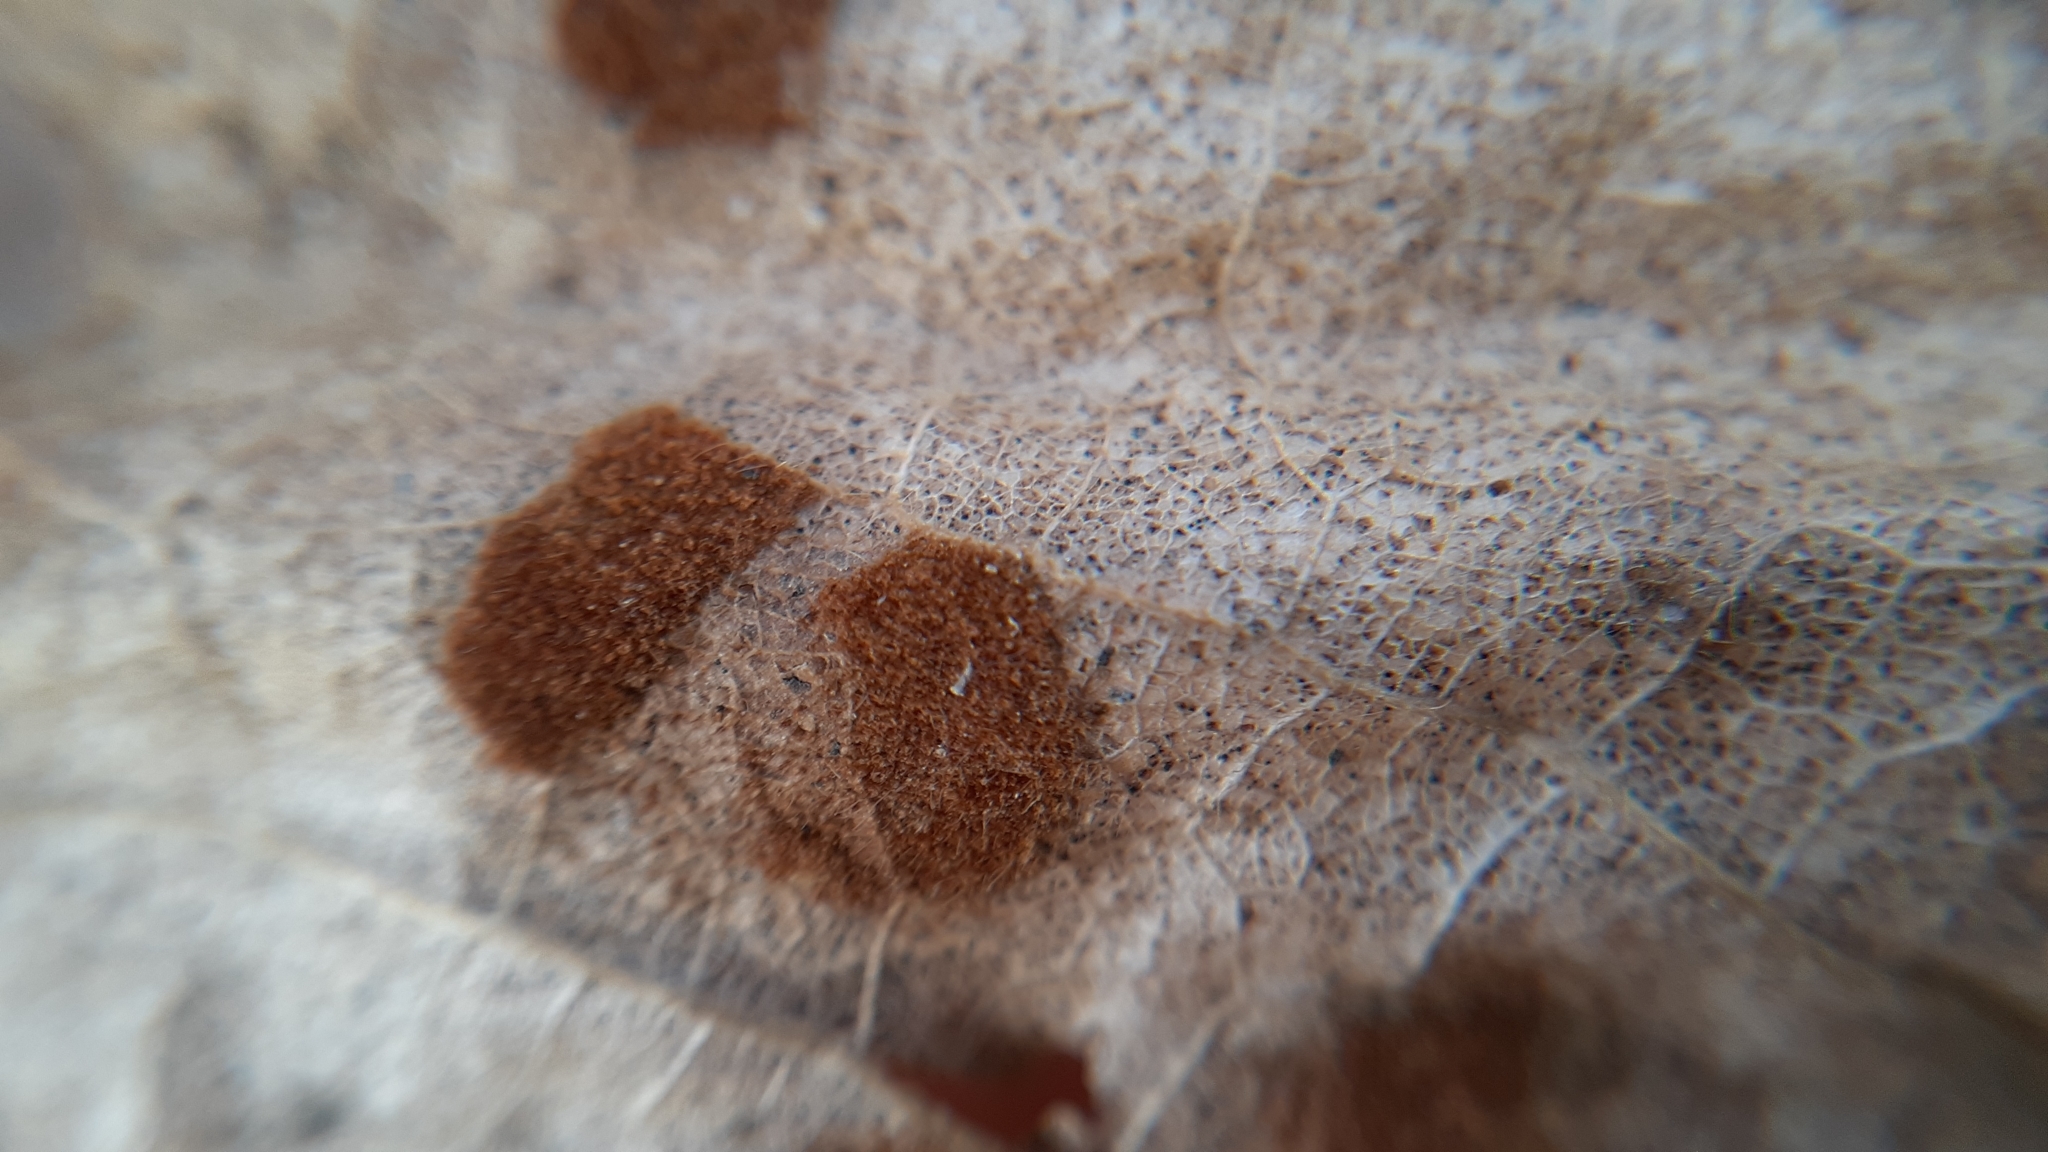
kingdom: Animalia
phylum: Arthropoda
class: Arachnida
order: Trombidiformes
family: Eriophyidae
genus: Aceria
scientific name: Aceria
